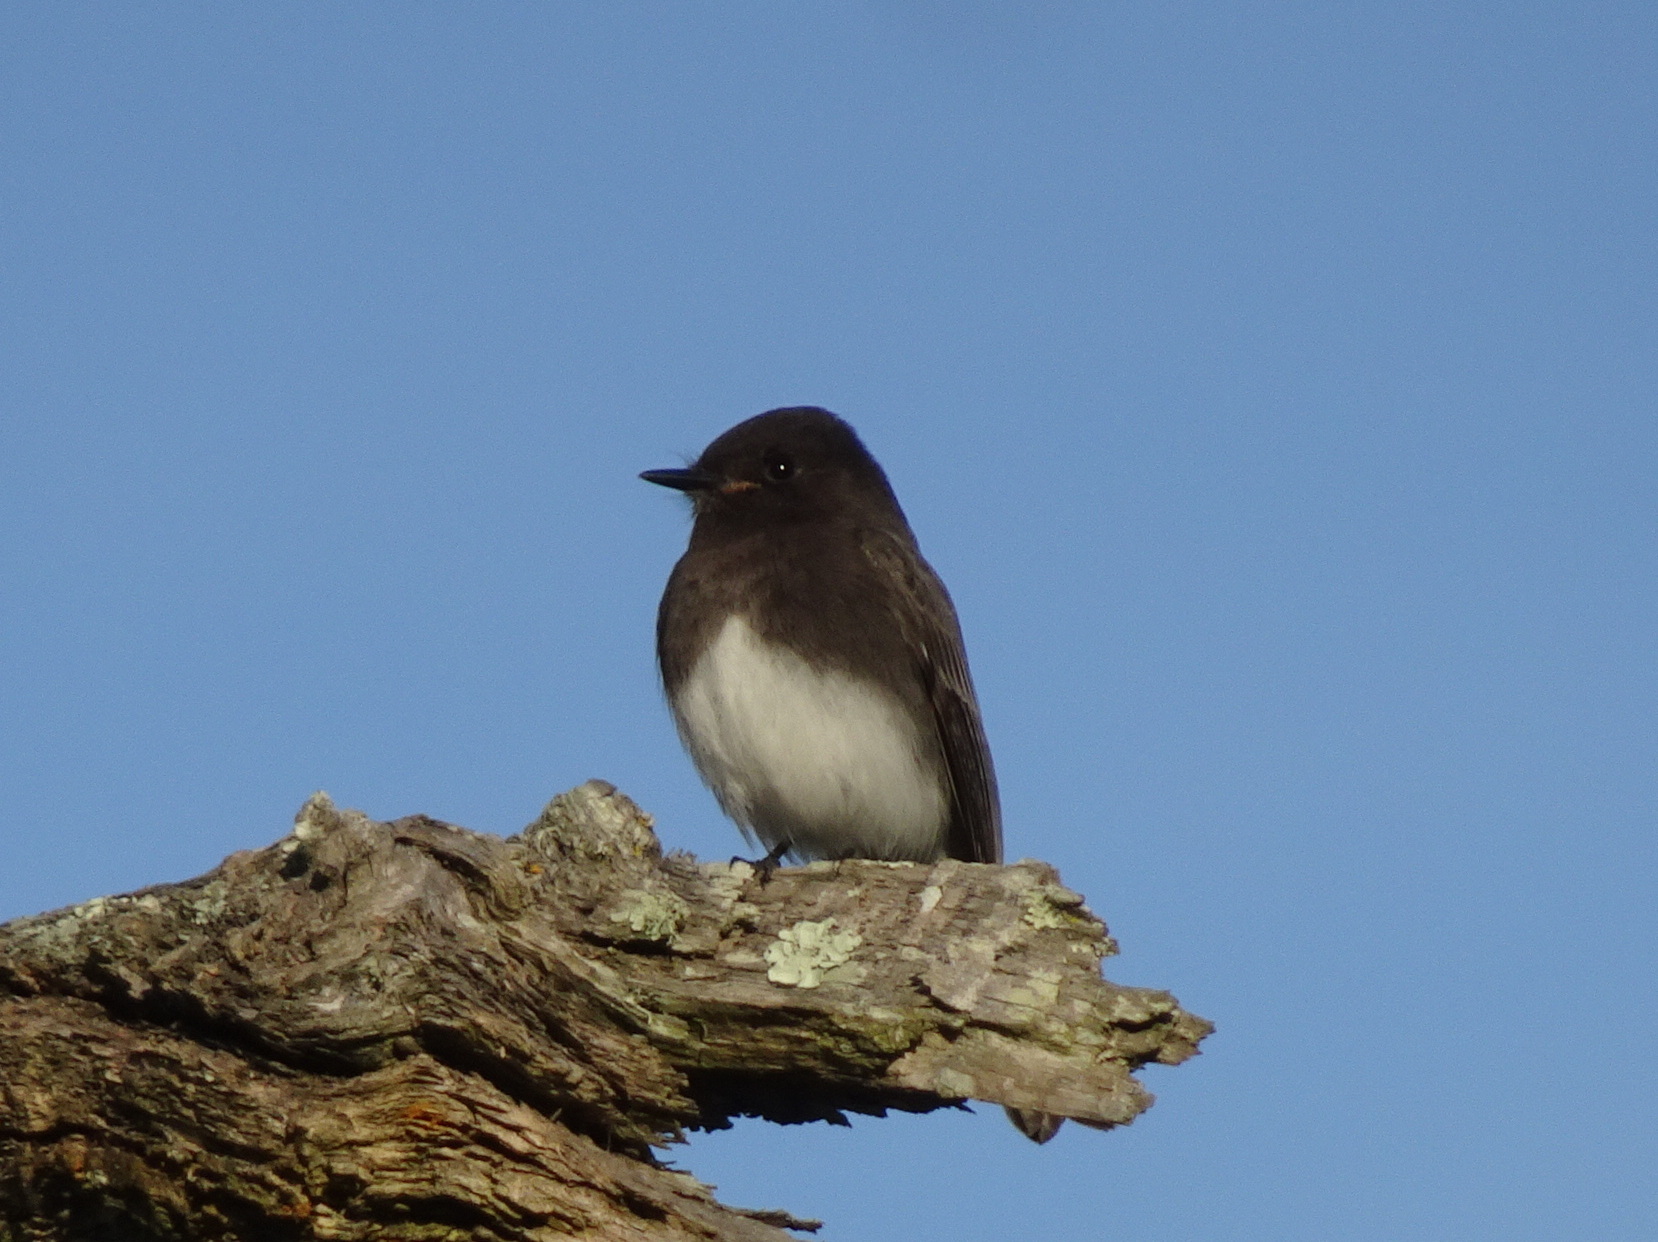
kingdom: Animalia
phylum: Chordata
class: Aves
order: Passeriformes
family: Tyrannidae
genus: Sayornis
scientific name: Sayornis nigricans
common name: Black phoebe
